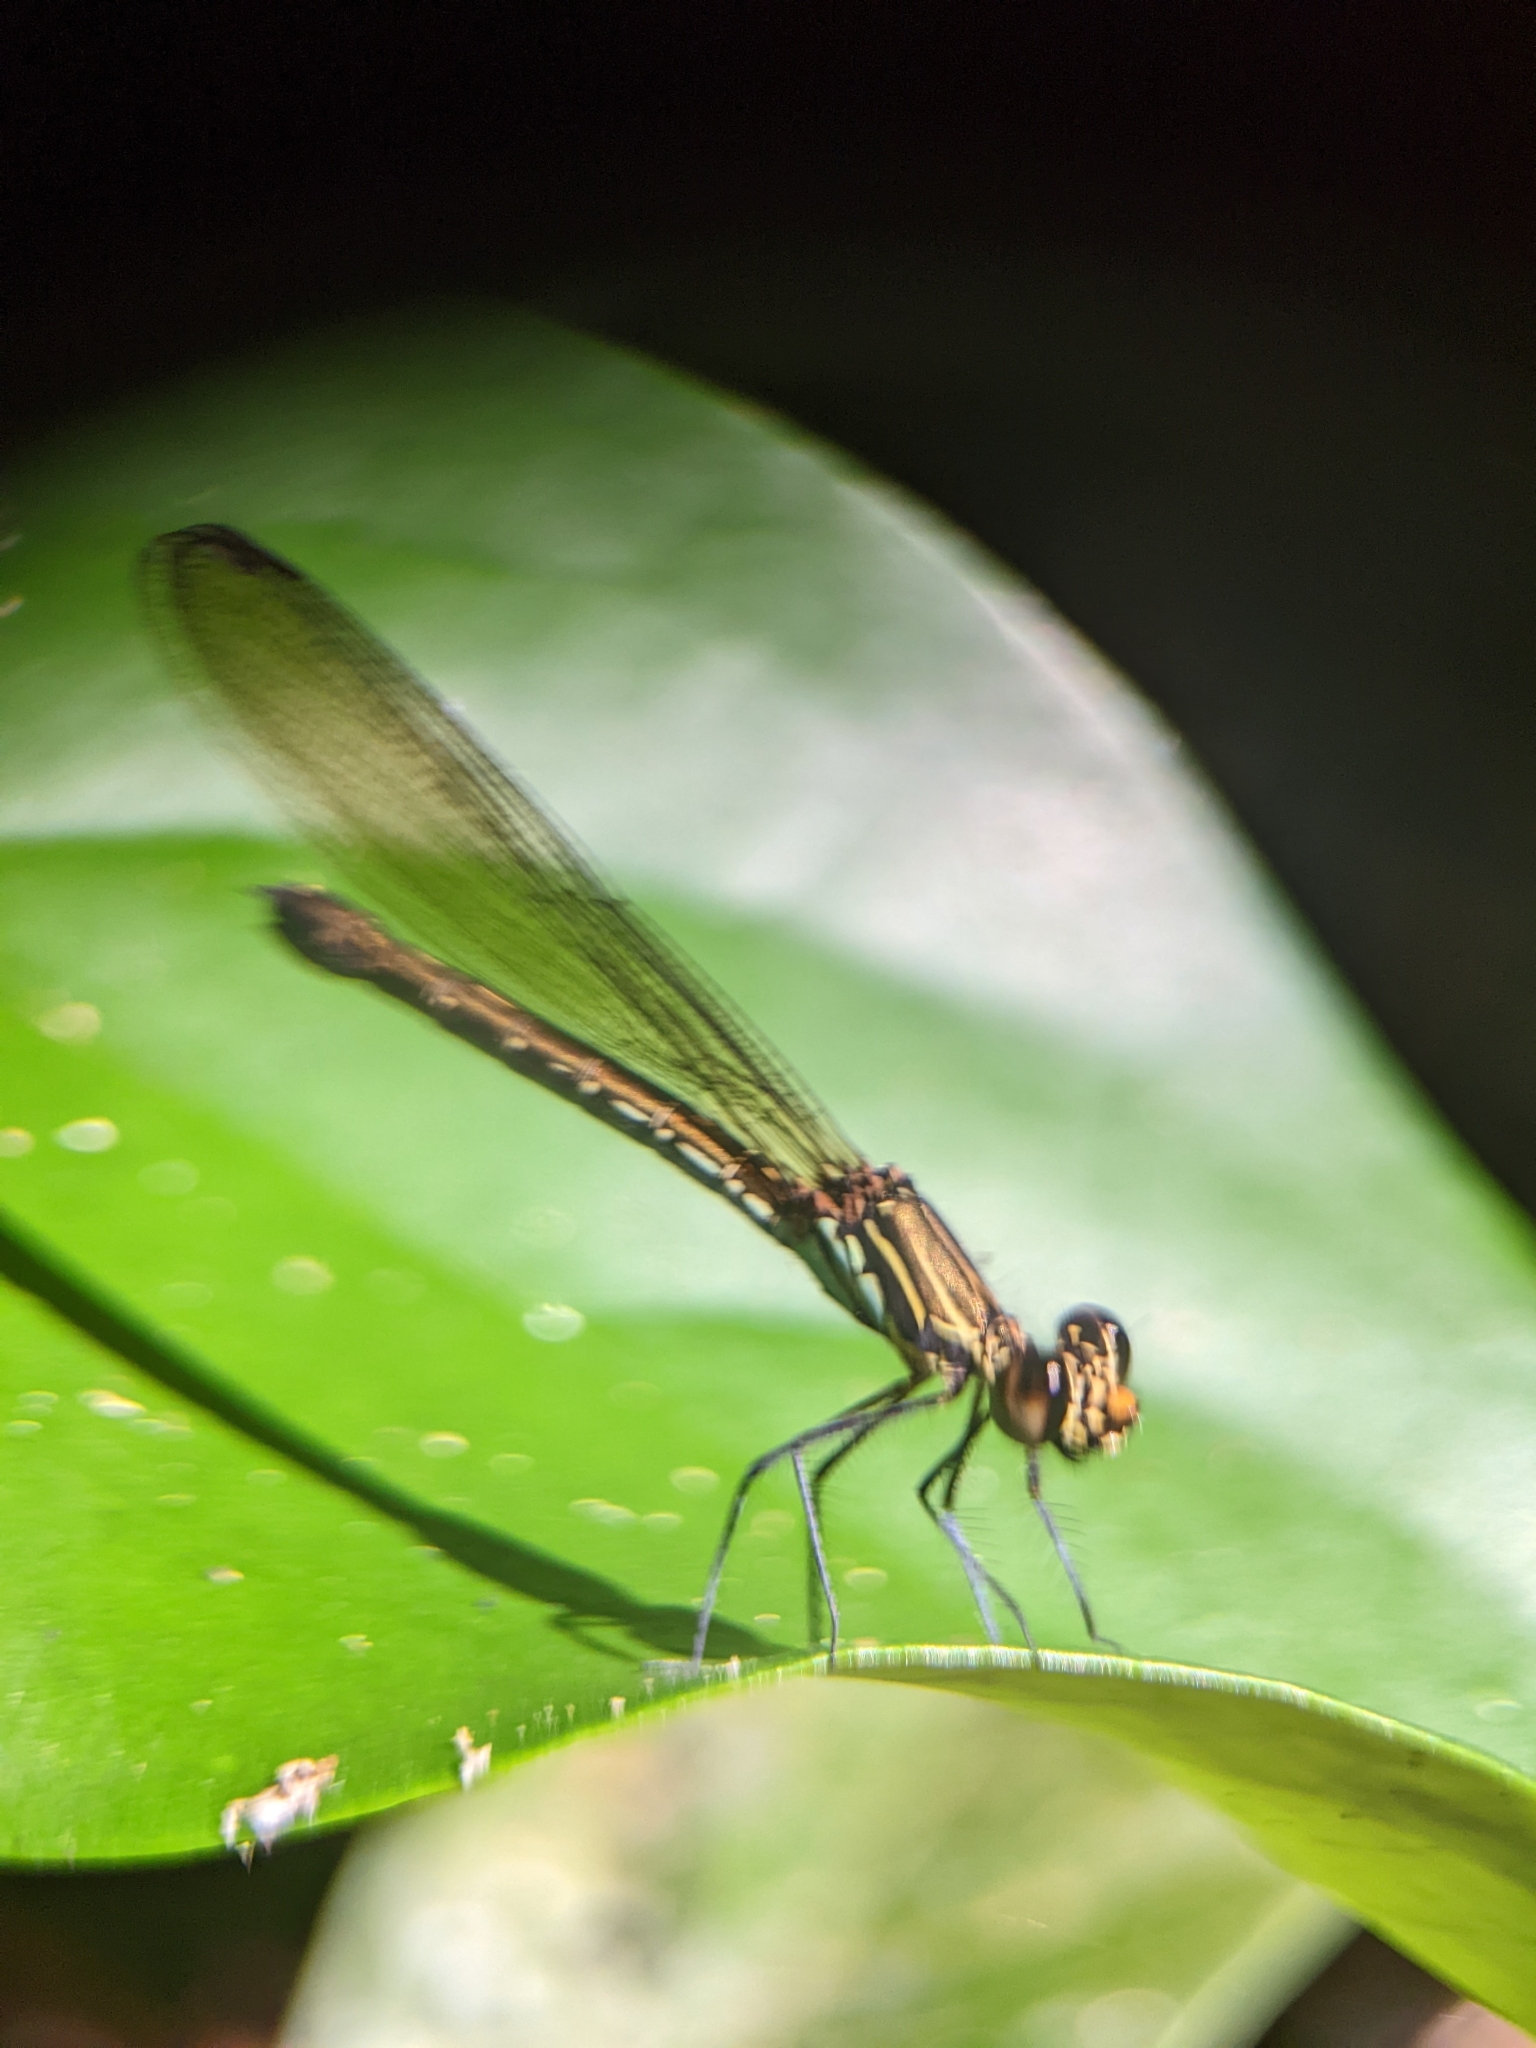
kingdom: Animalia
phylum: Arthropoda
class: Insecta
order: Odonata
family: Chlorocyphidae
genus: Heliocypha
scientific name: Heliocypha biforata
